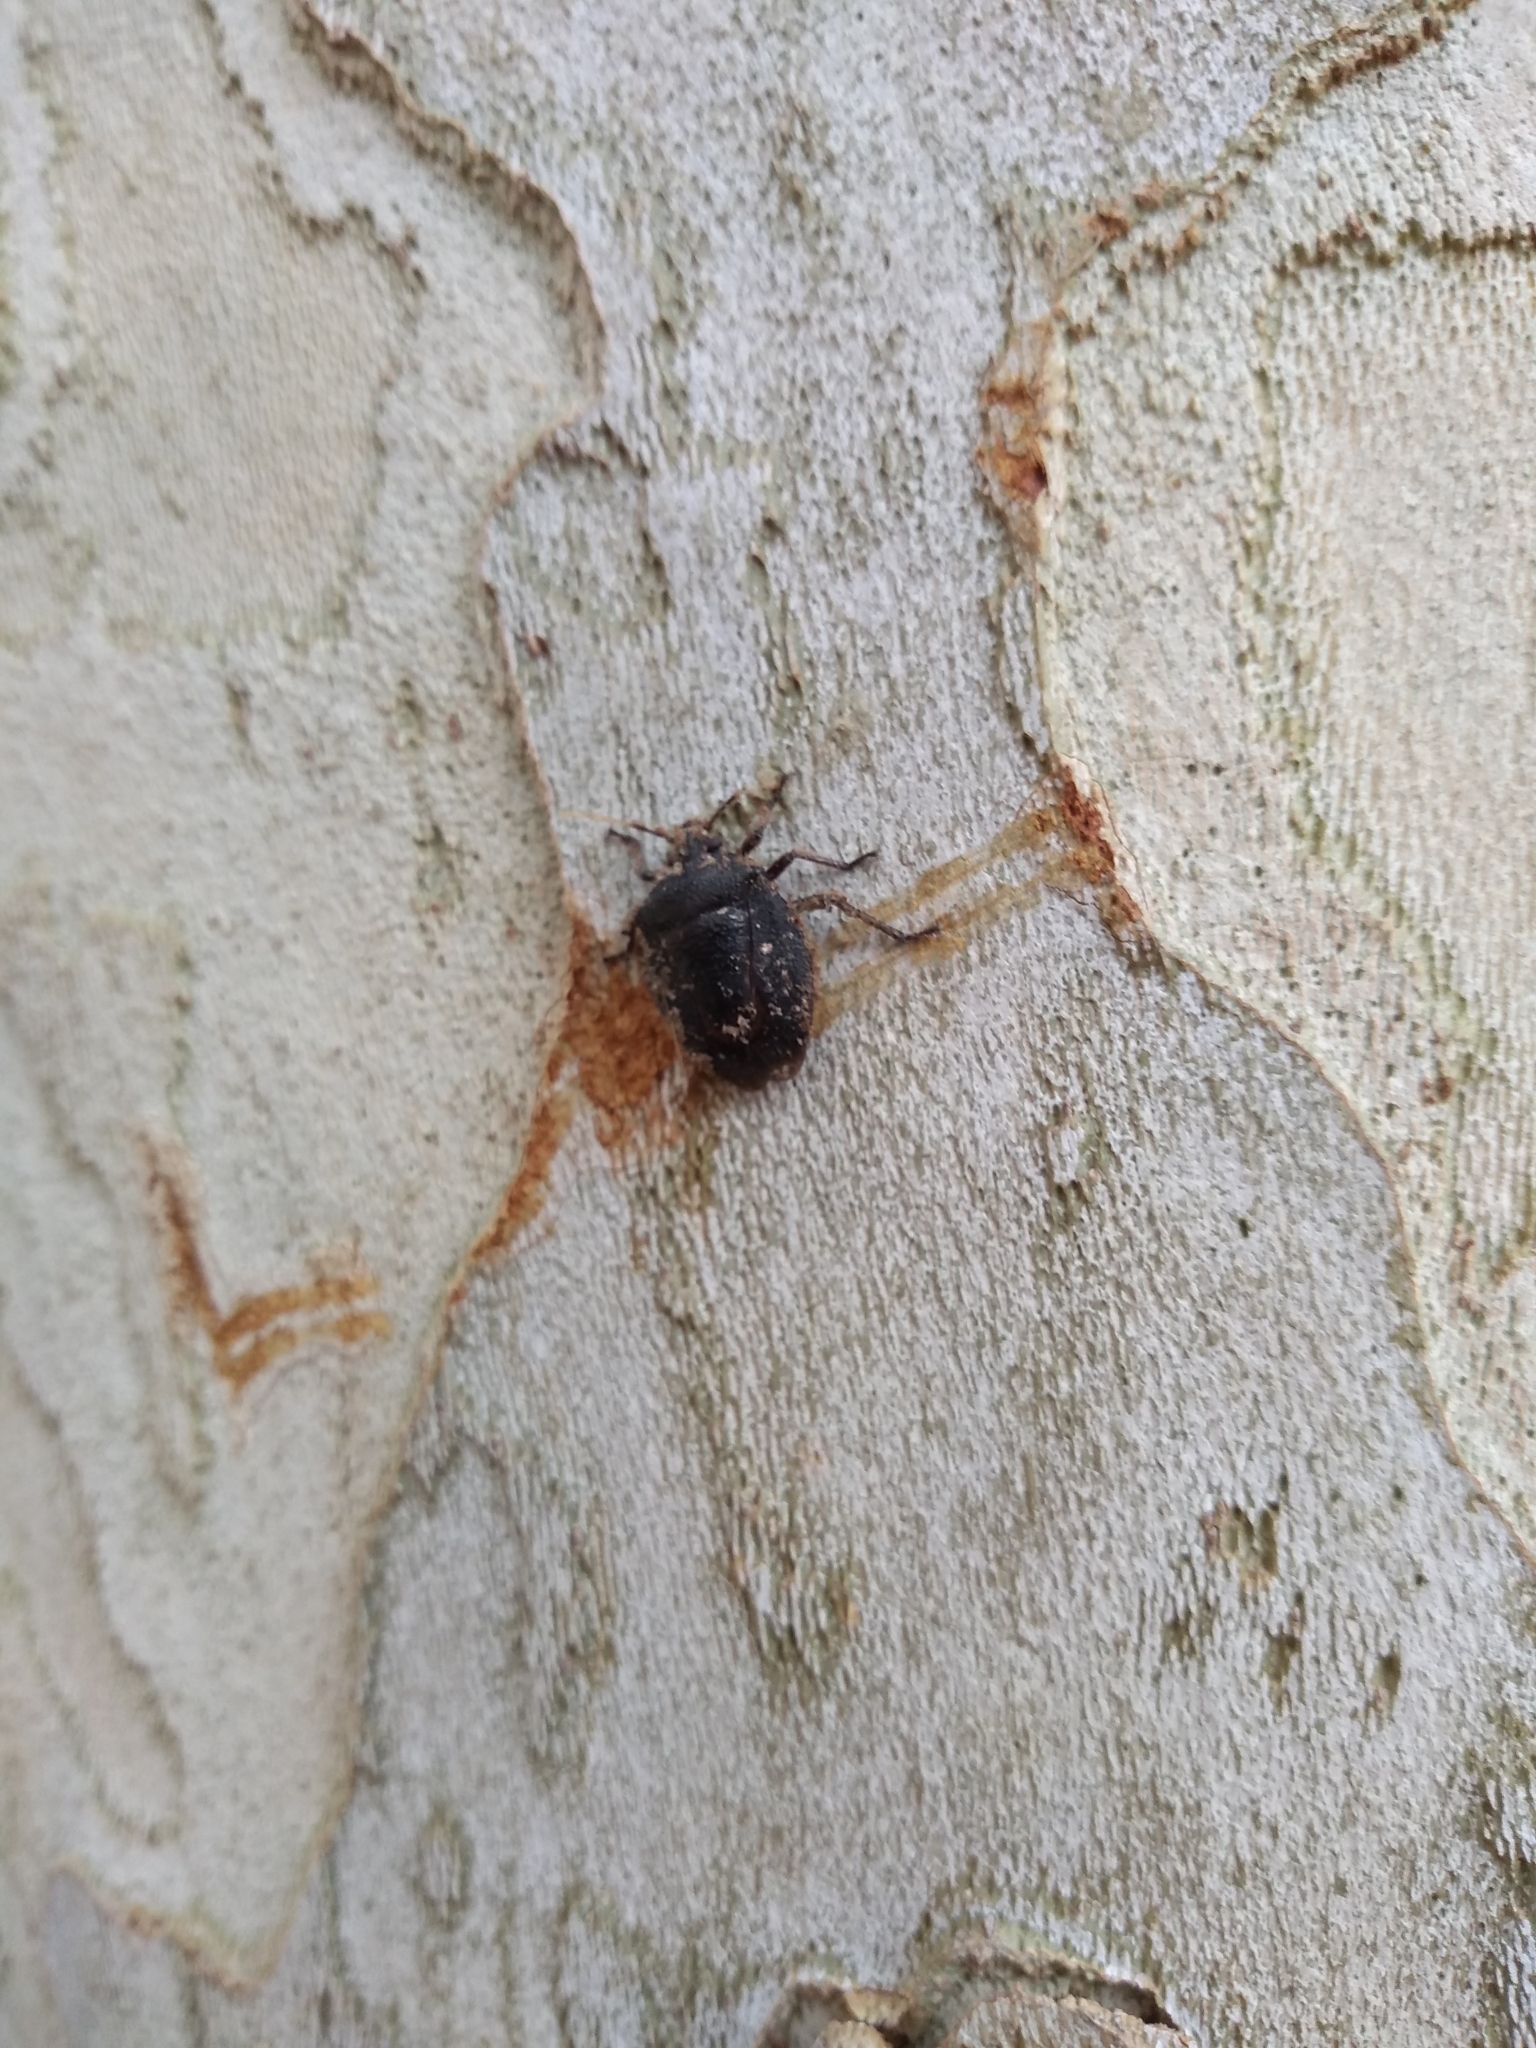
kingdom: Animalia
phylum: Arthropoda
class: Insecta
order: Hemiptera
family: Pentatomidae
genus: Antiteuchus
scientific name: Antiteuchus mixtus
